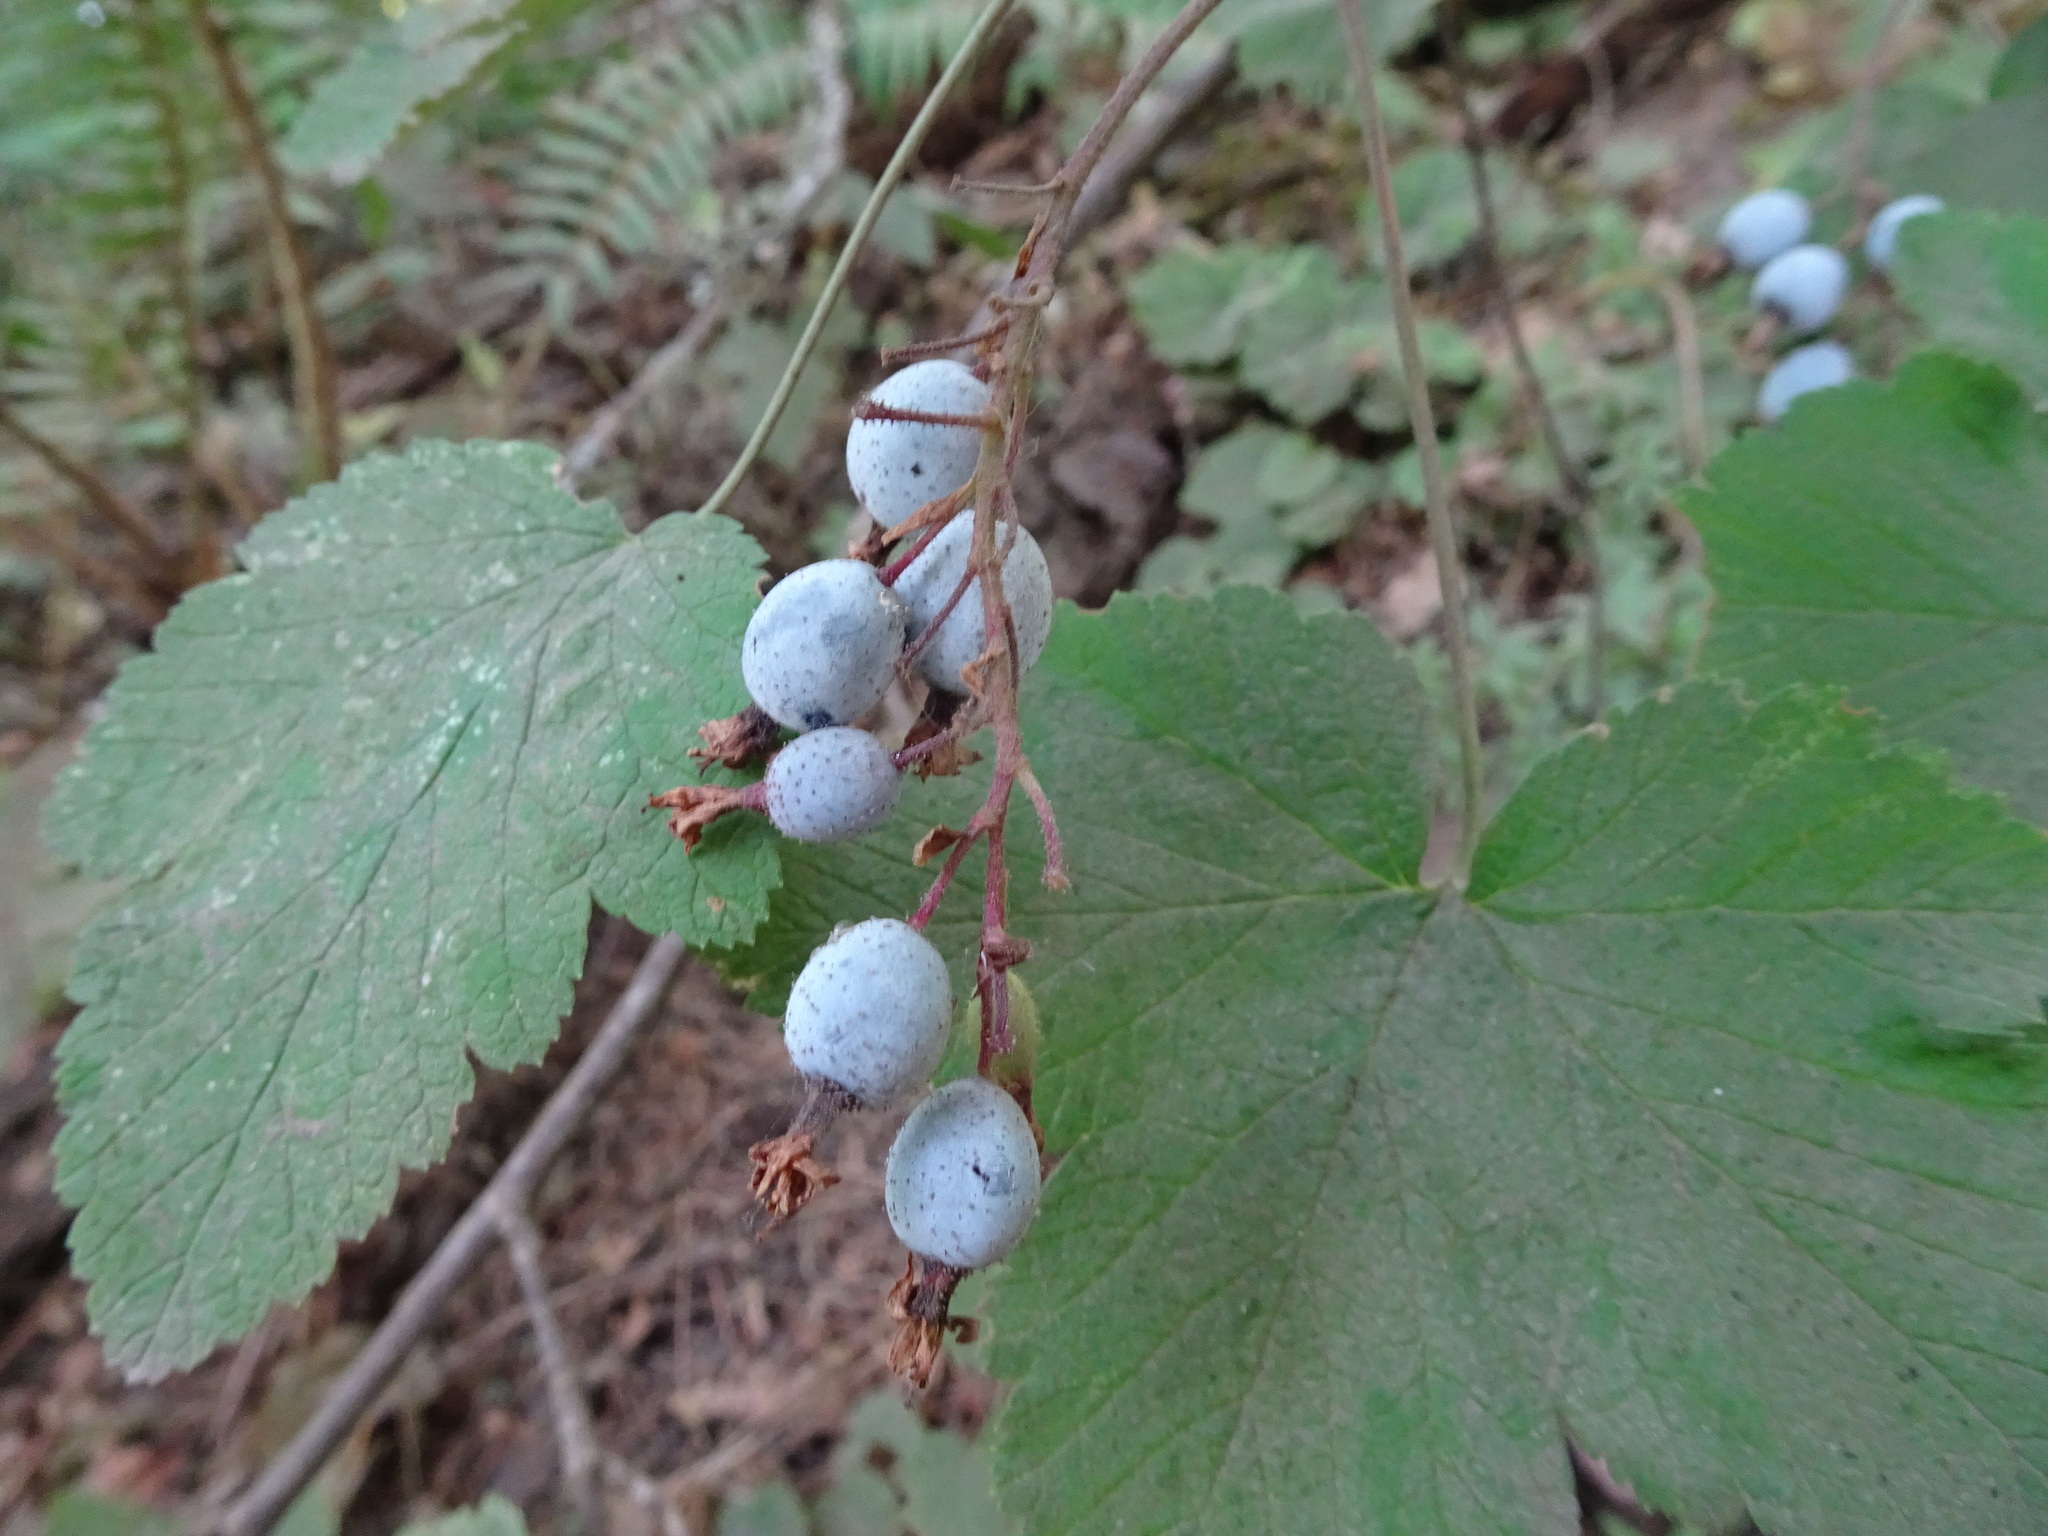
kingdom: Plantae
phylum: Tracheophyta
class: Magnoliopsida
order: Saxifragales
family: Grossulariaceae
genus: Ribes
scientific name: Ribes sanguineum
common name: Flowering currant
